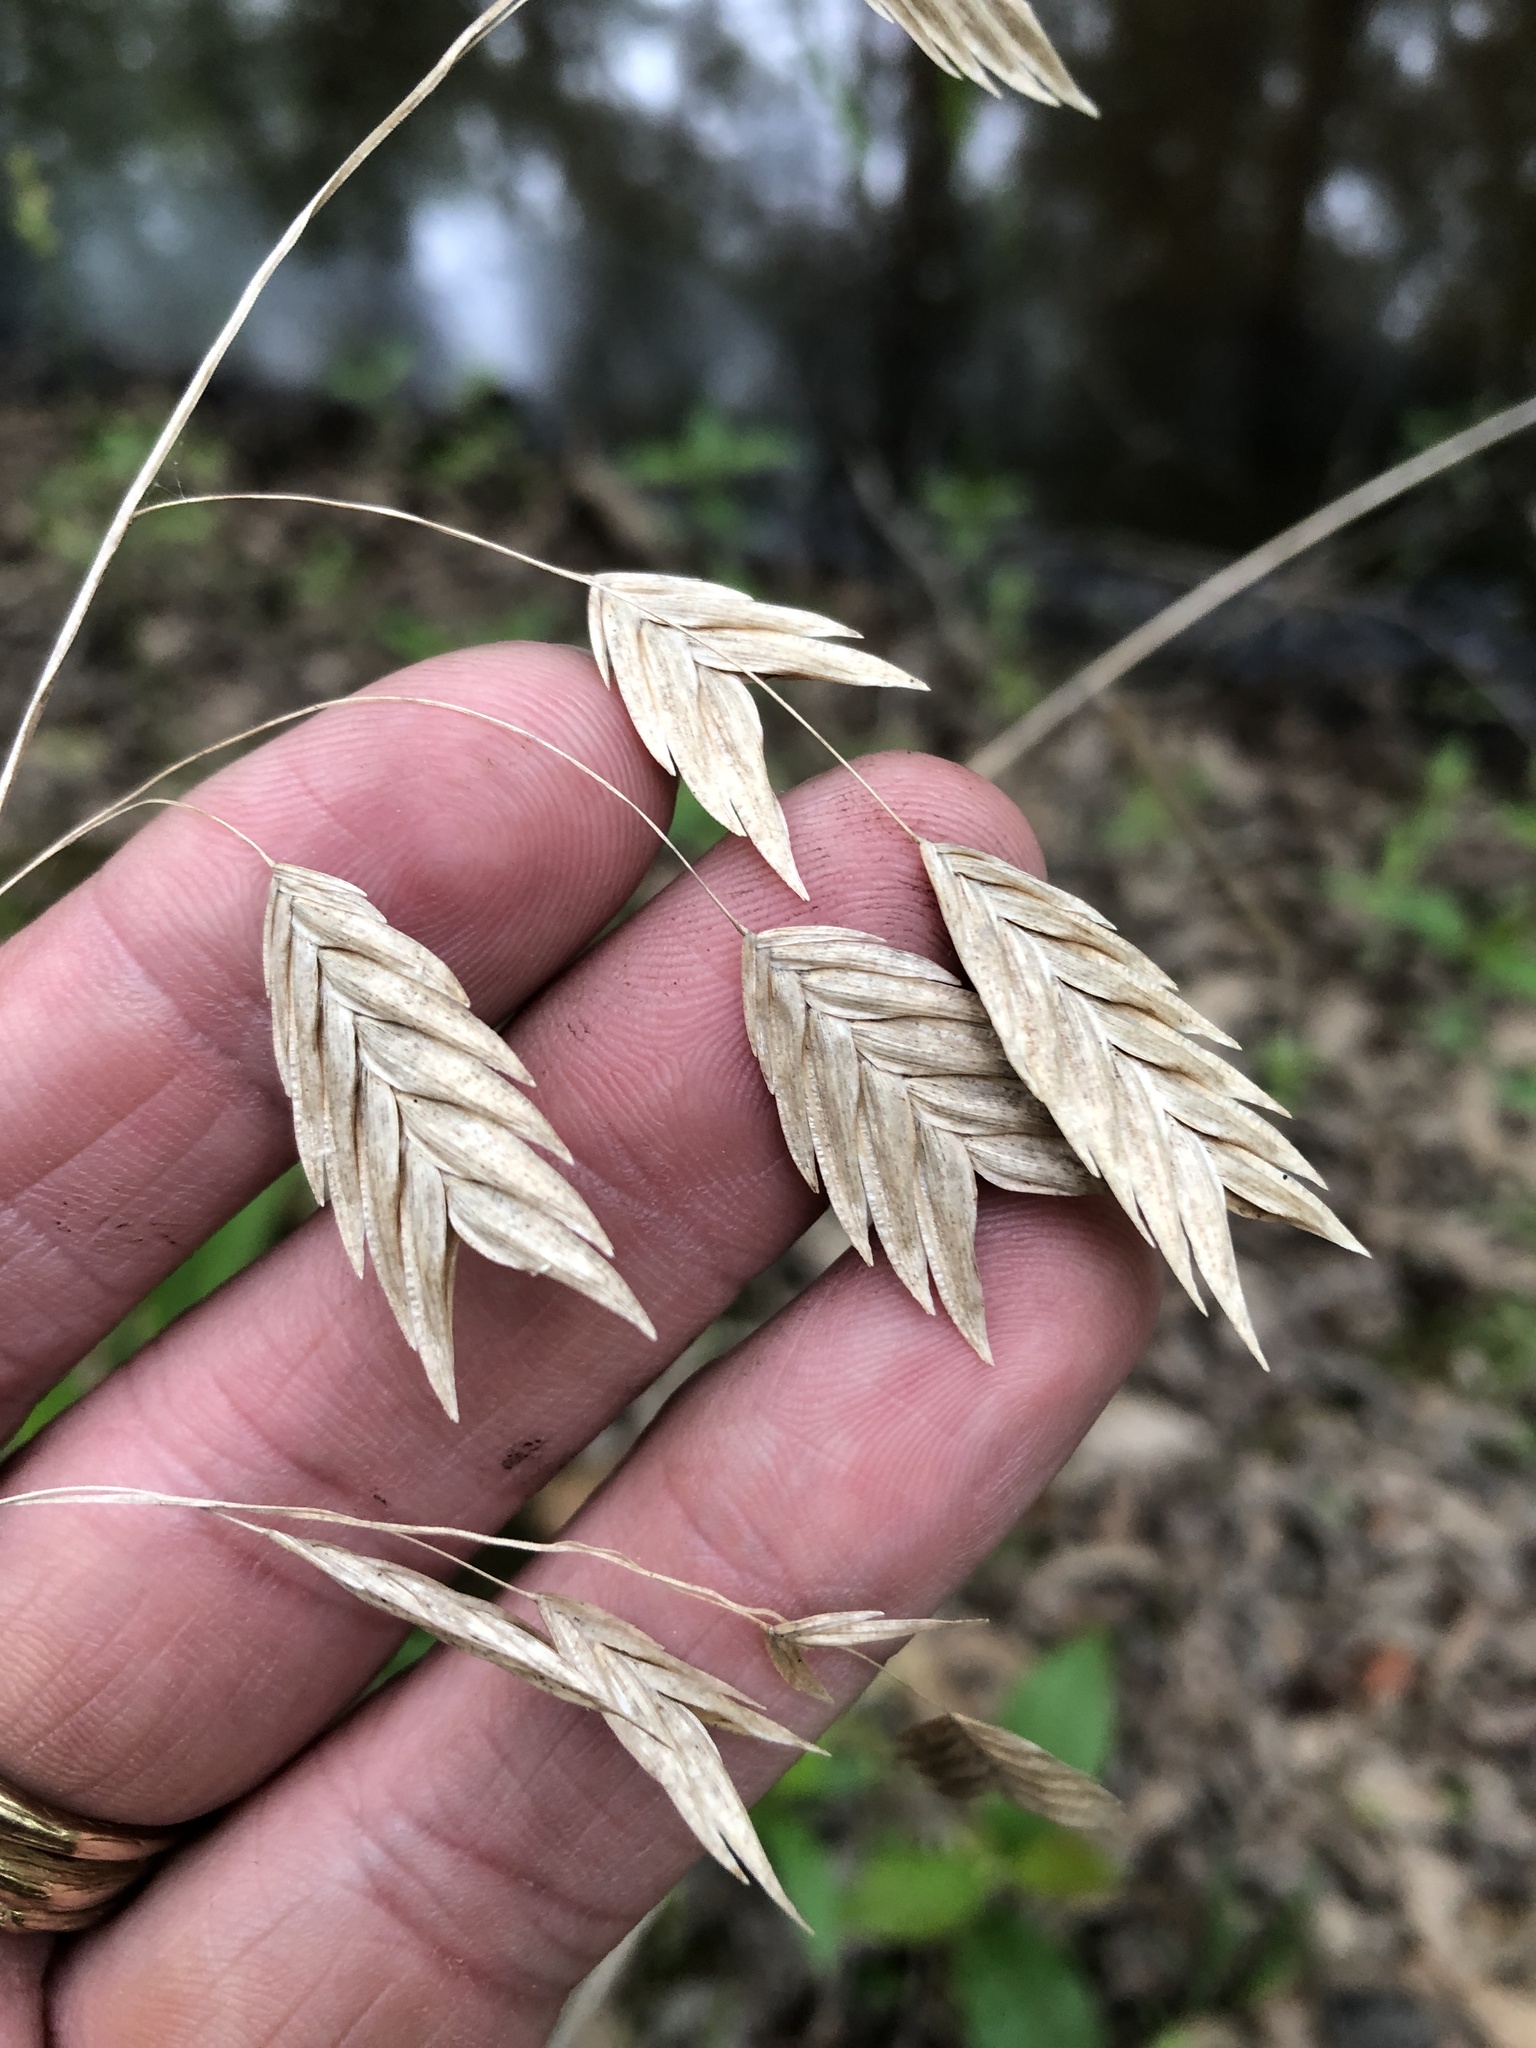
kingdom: Plantae
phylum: Tracheophyta
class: Liliopsida
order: Poales
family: Poaceae
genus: Chasmanthium
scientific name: Chasmanthium latifolium
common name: Broad-leaved chasmanthium
